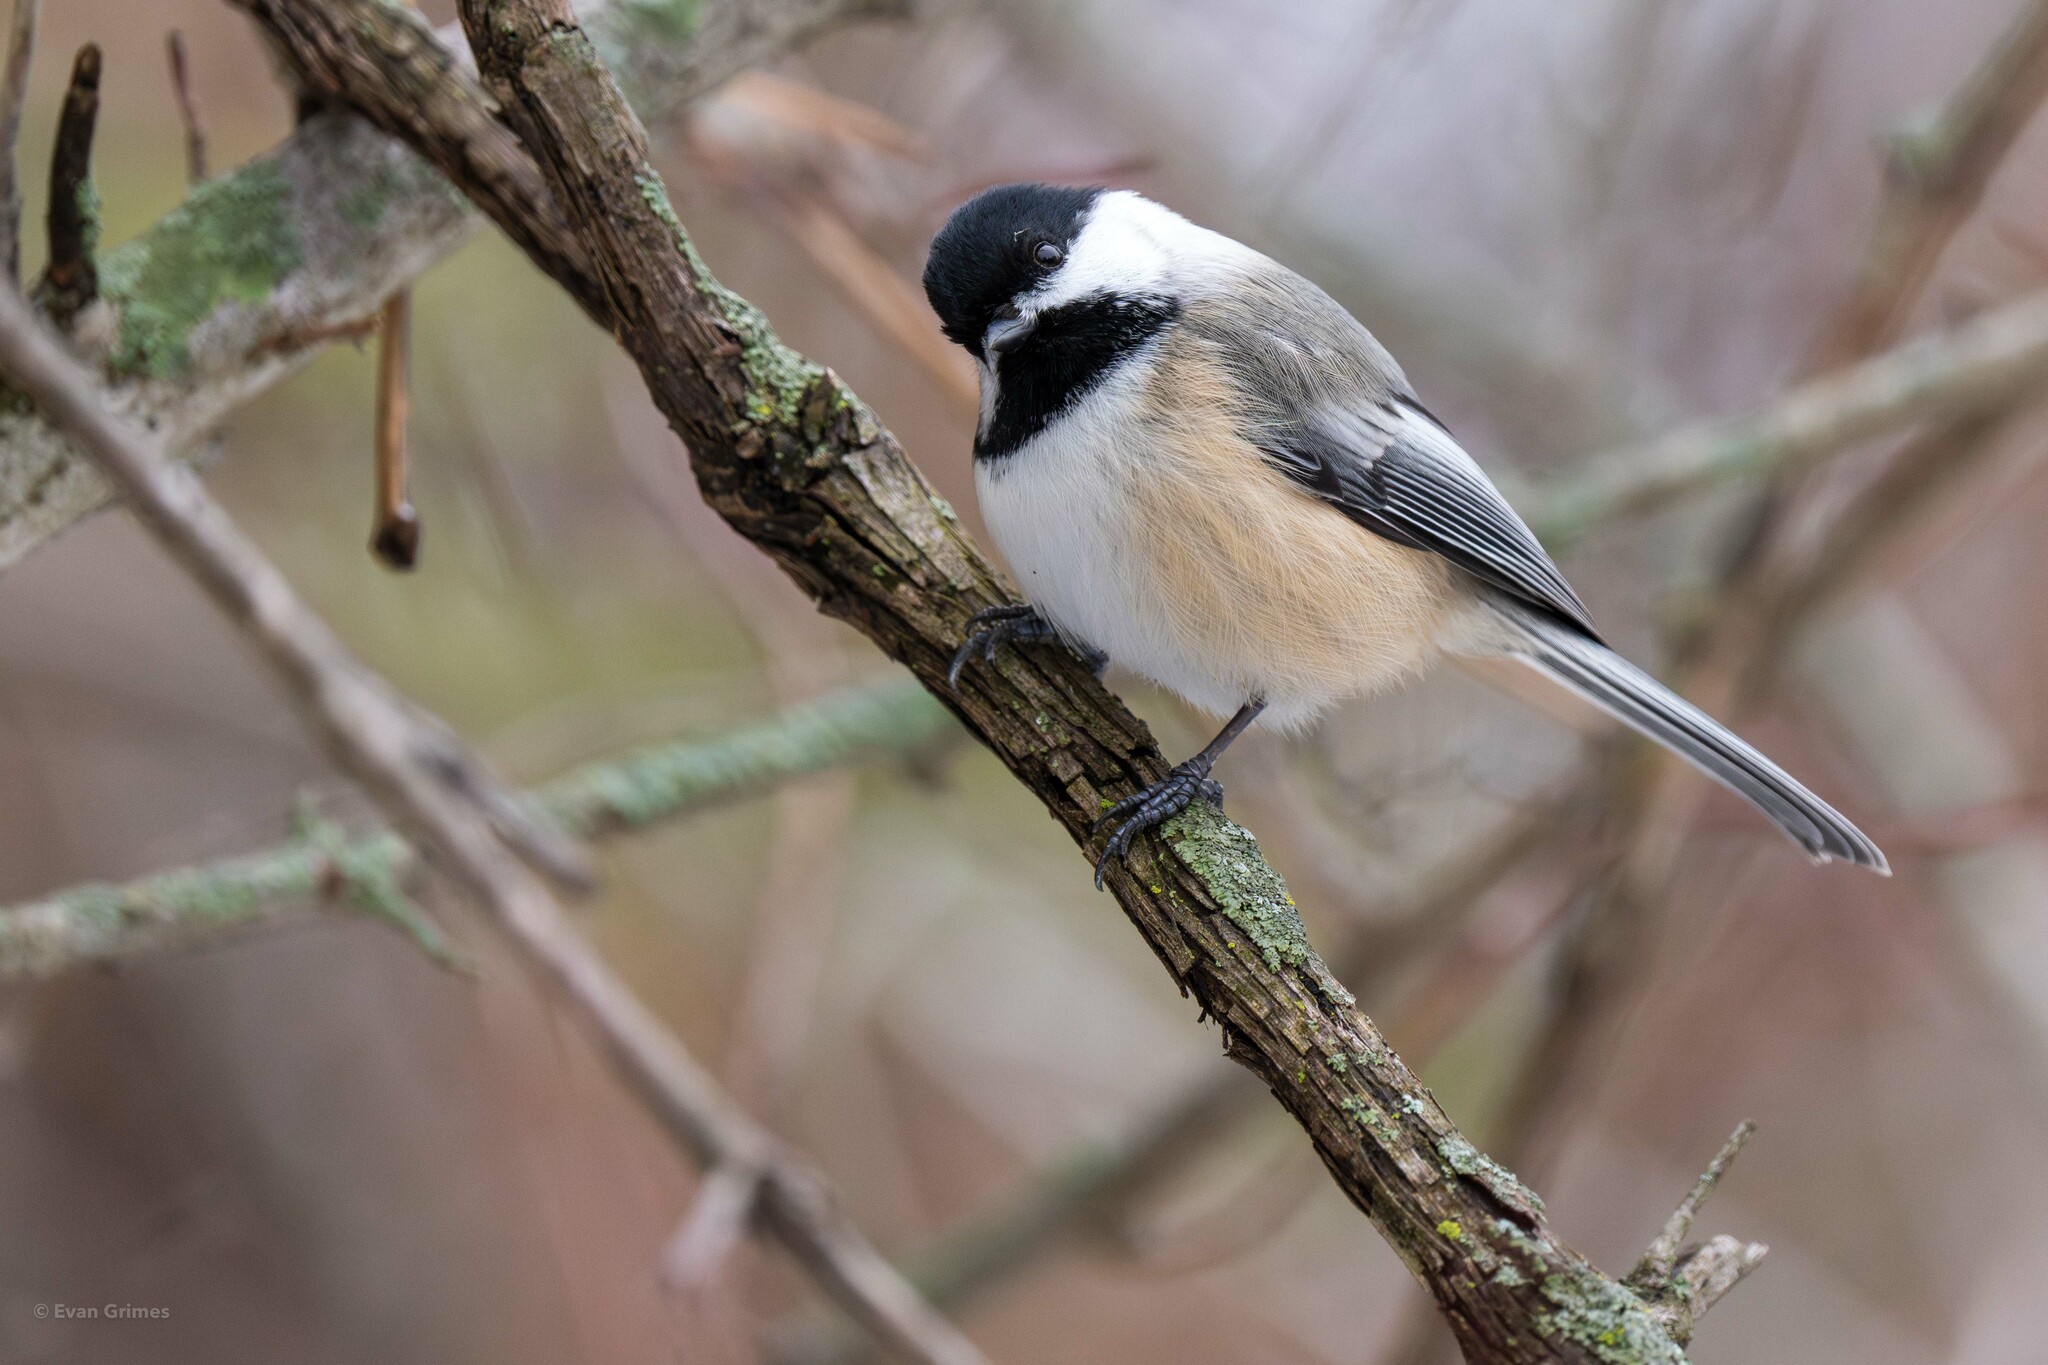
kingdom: Animalia
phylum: Chordata
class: Aves
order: Passeriformes
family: Paridae
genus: Poecile
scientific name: Poecile atricapillus
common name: Black-capped chickadee
